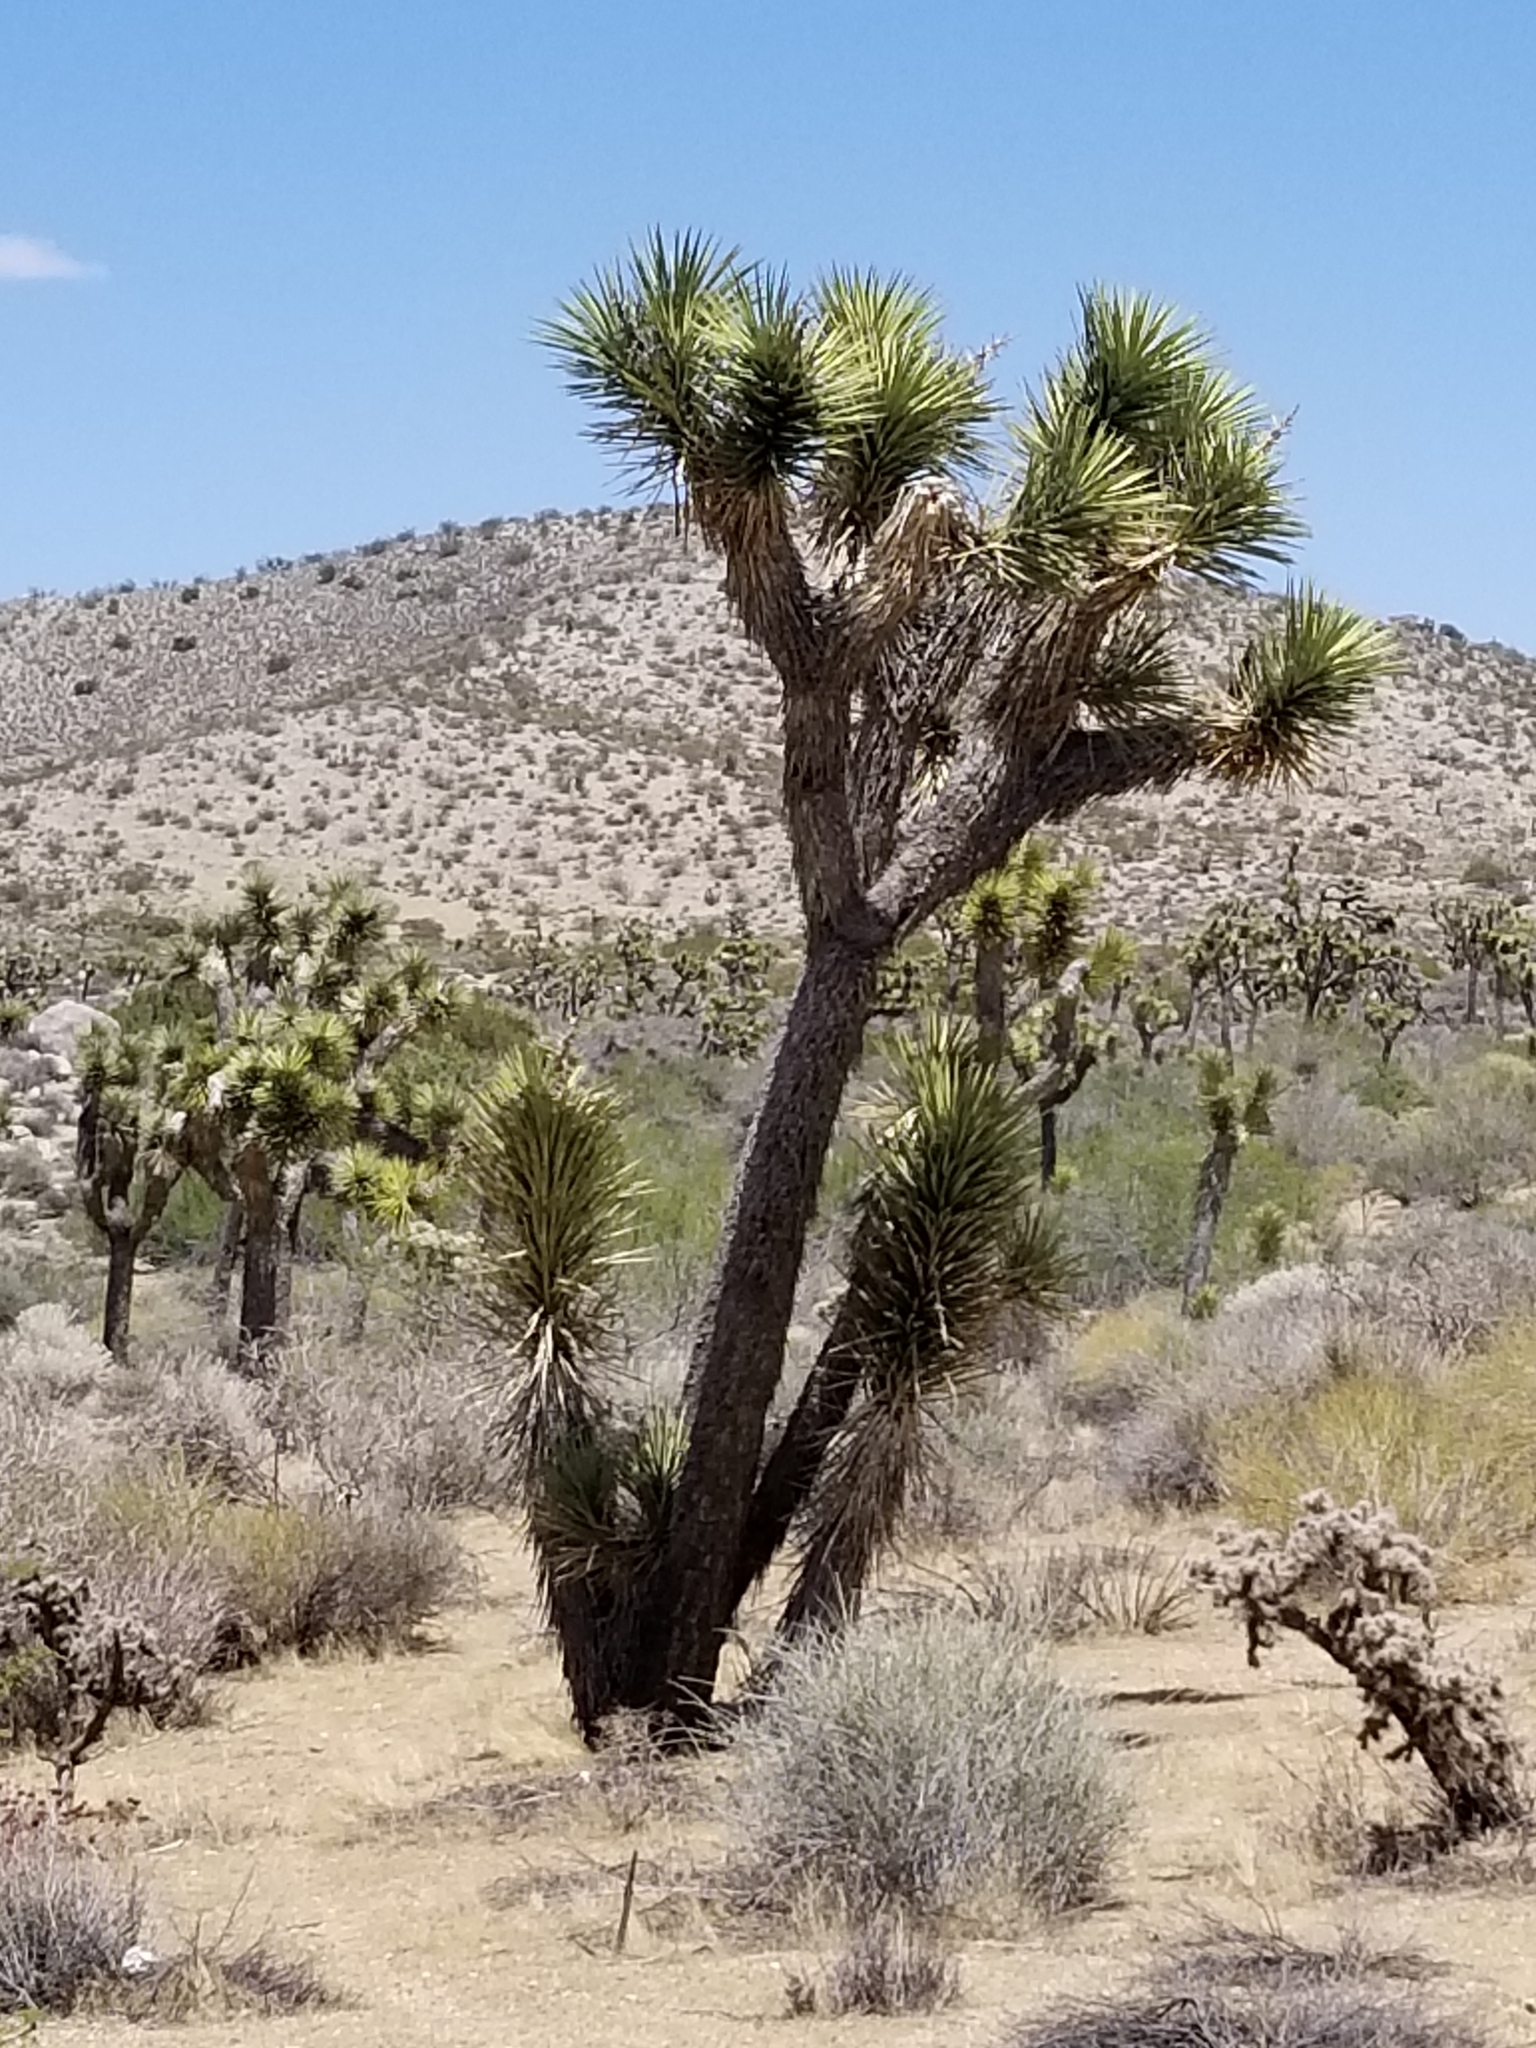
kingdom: Plantae
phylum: Tracheophyta
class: Liliopsida
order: Asparagales
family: Asparagaceae
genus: Yucca
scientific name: Yucca brevifolia
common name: Joshua tree
